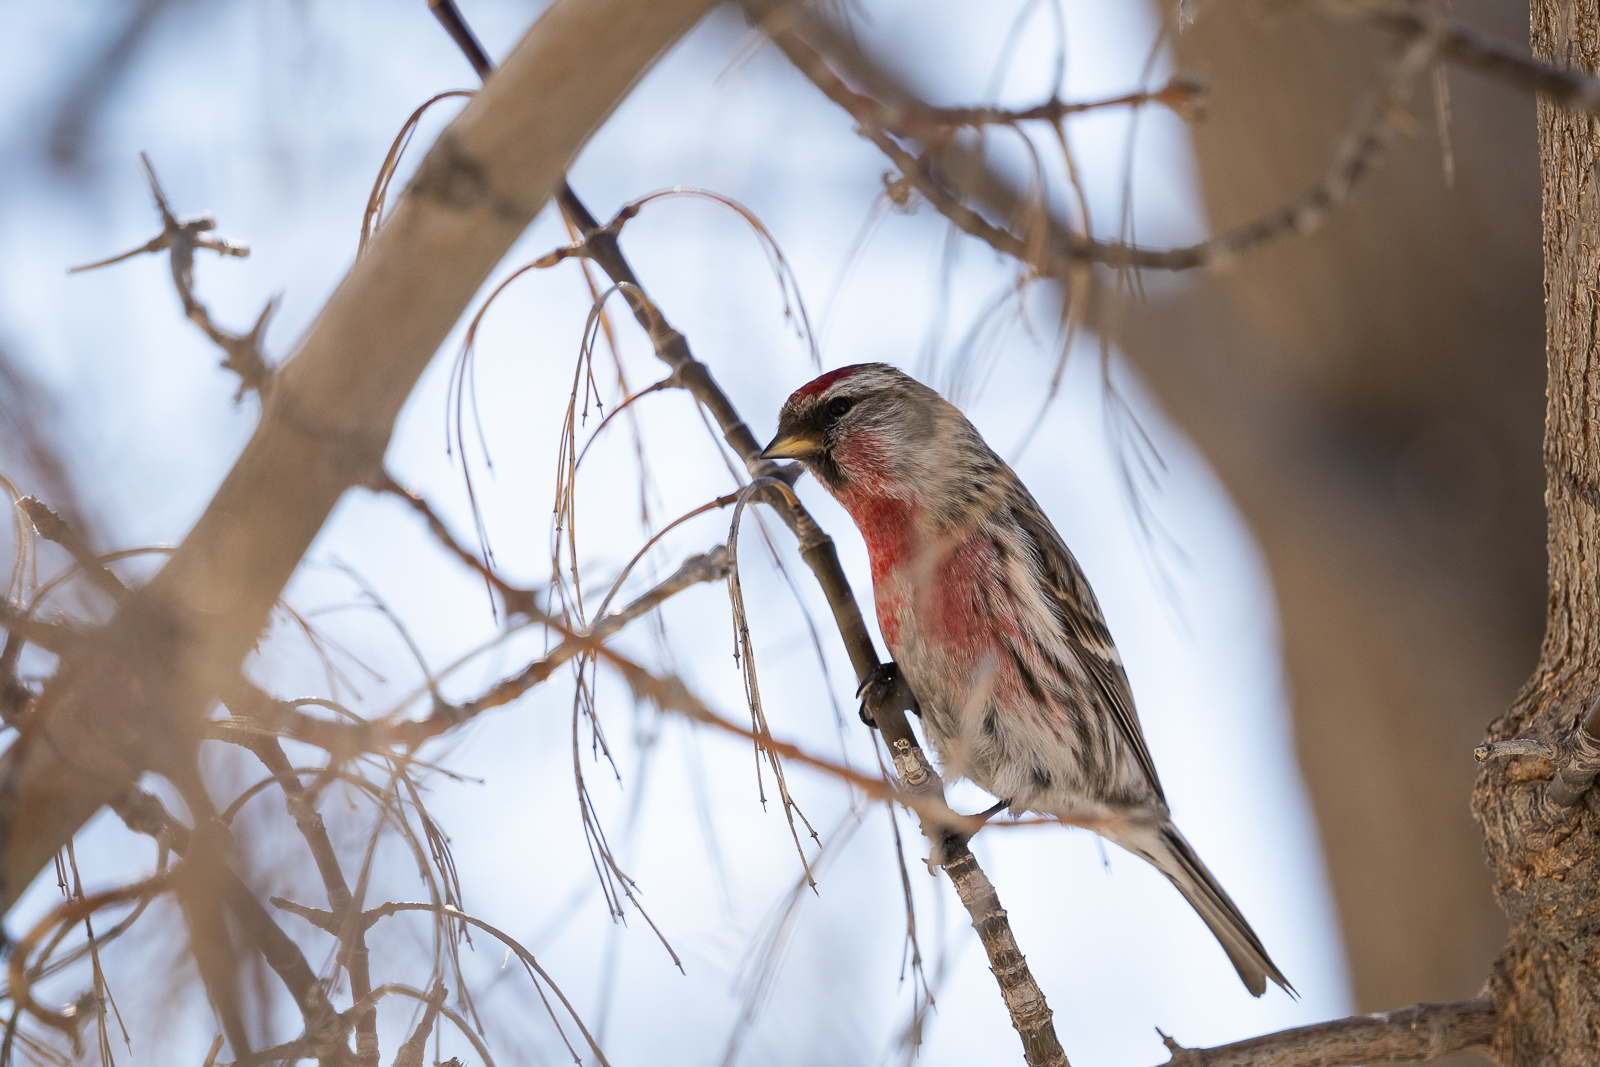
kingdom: Animalia
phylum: Chordata
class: Aves
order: Passeriformes
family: Fringillidae
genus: Acanthis
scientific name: Acanthis flammea
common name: Common redpoll
